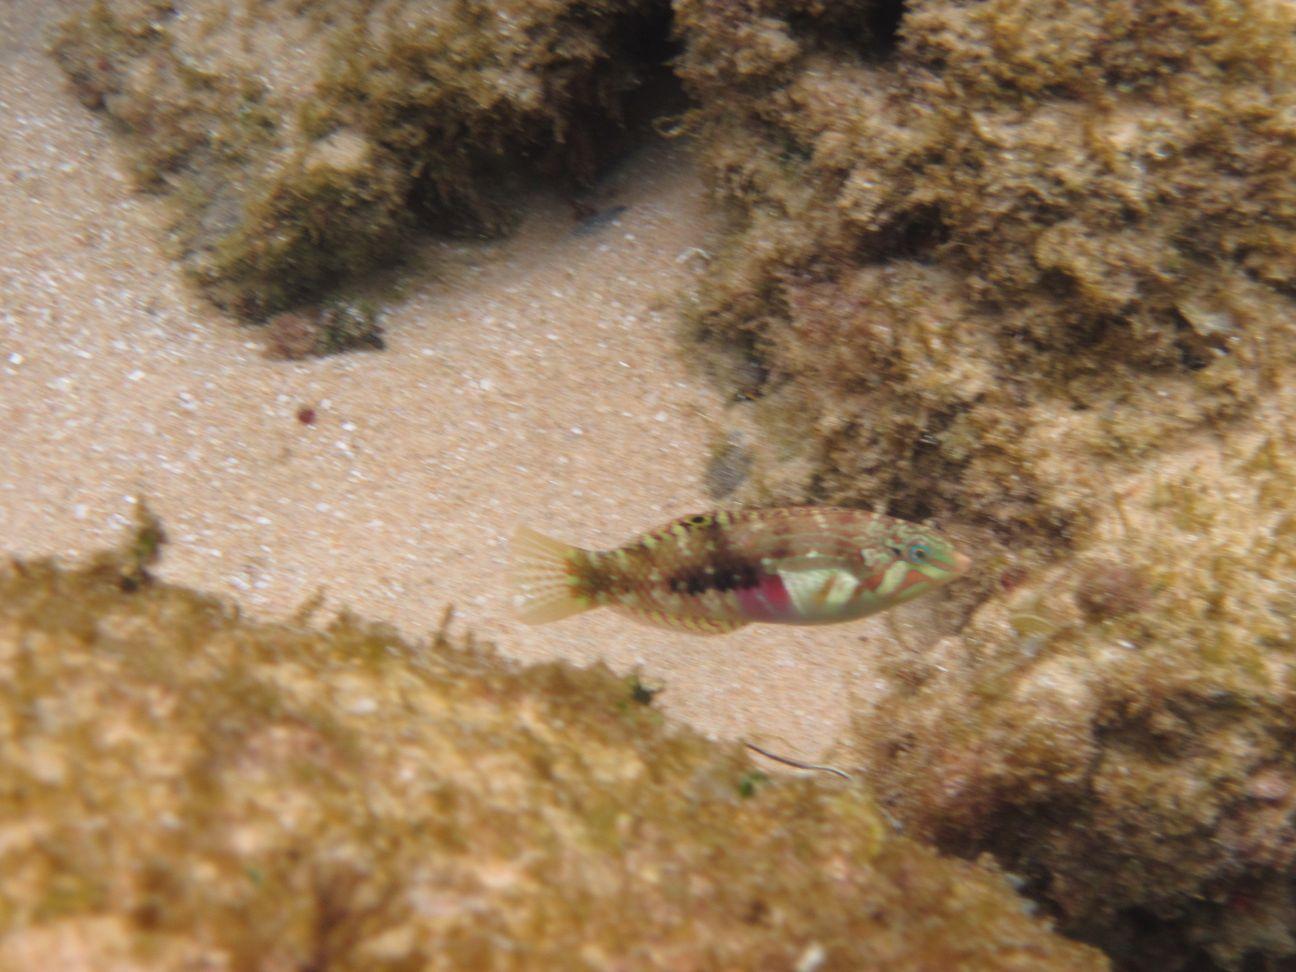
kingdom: Animalia
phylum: Chordata
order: Perciformes
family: Labridae
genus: Halichoeres
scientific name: Halichoeres nebulosus
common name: Clouded wrasse
